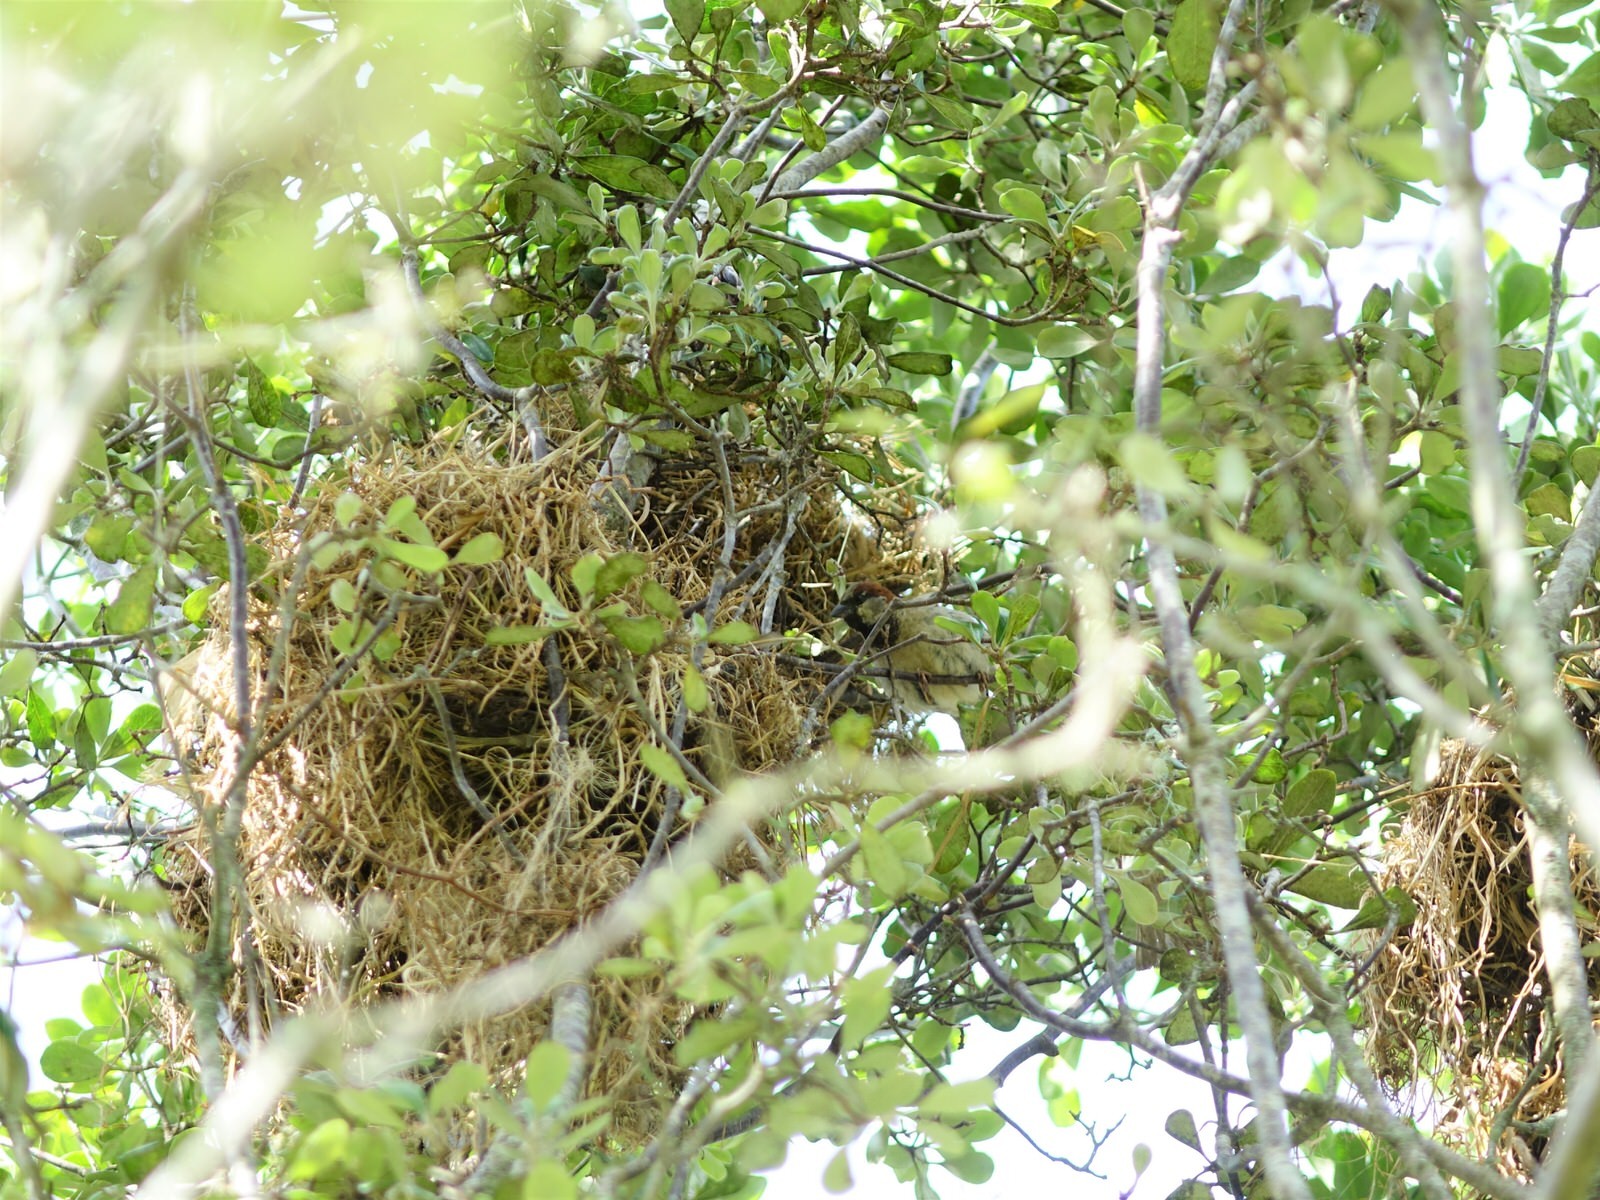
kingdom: Animalia
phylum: Chordata
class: Aves
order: Passeriformes
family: Passeridae
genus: Passer
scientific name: Passer domesticus
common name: House sparrow
